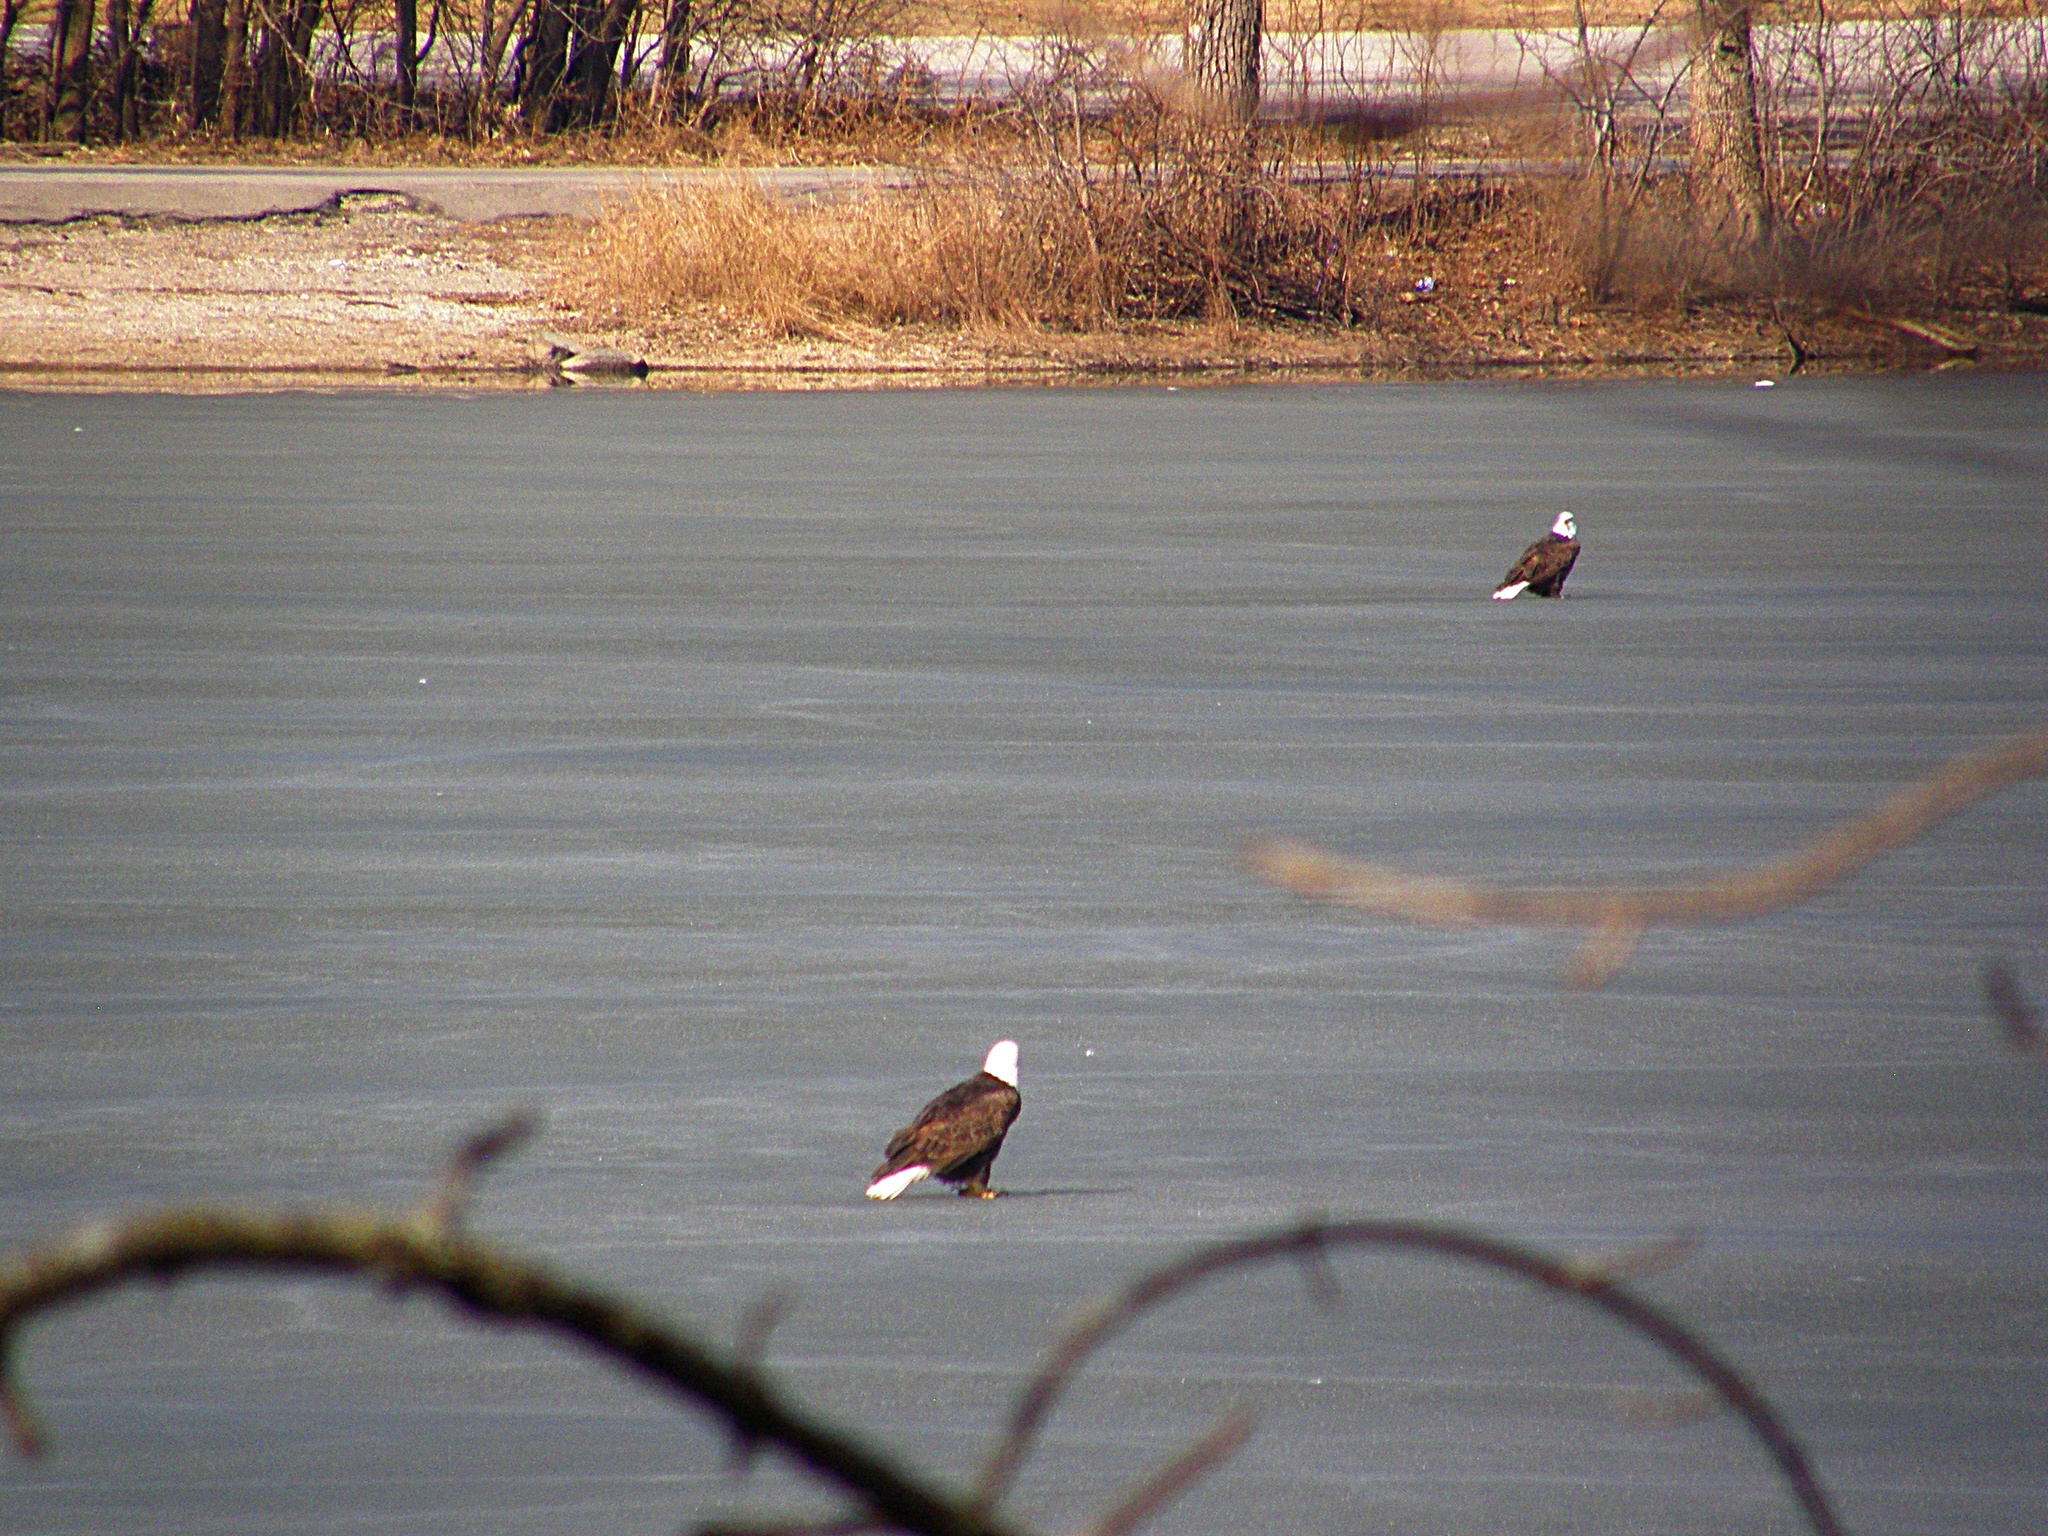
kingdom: Animalia
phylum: Chordata
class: Aves
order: Accipitriformes
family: Accipitridae
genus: Haliaeetus
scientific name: Haliaeetus leucocephalus
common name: Bald eagle
